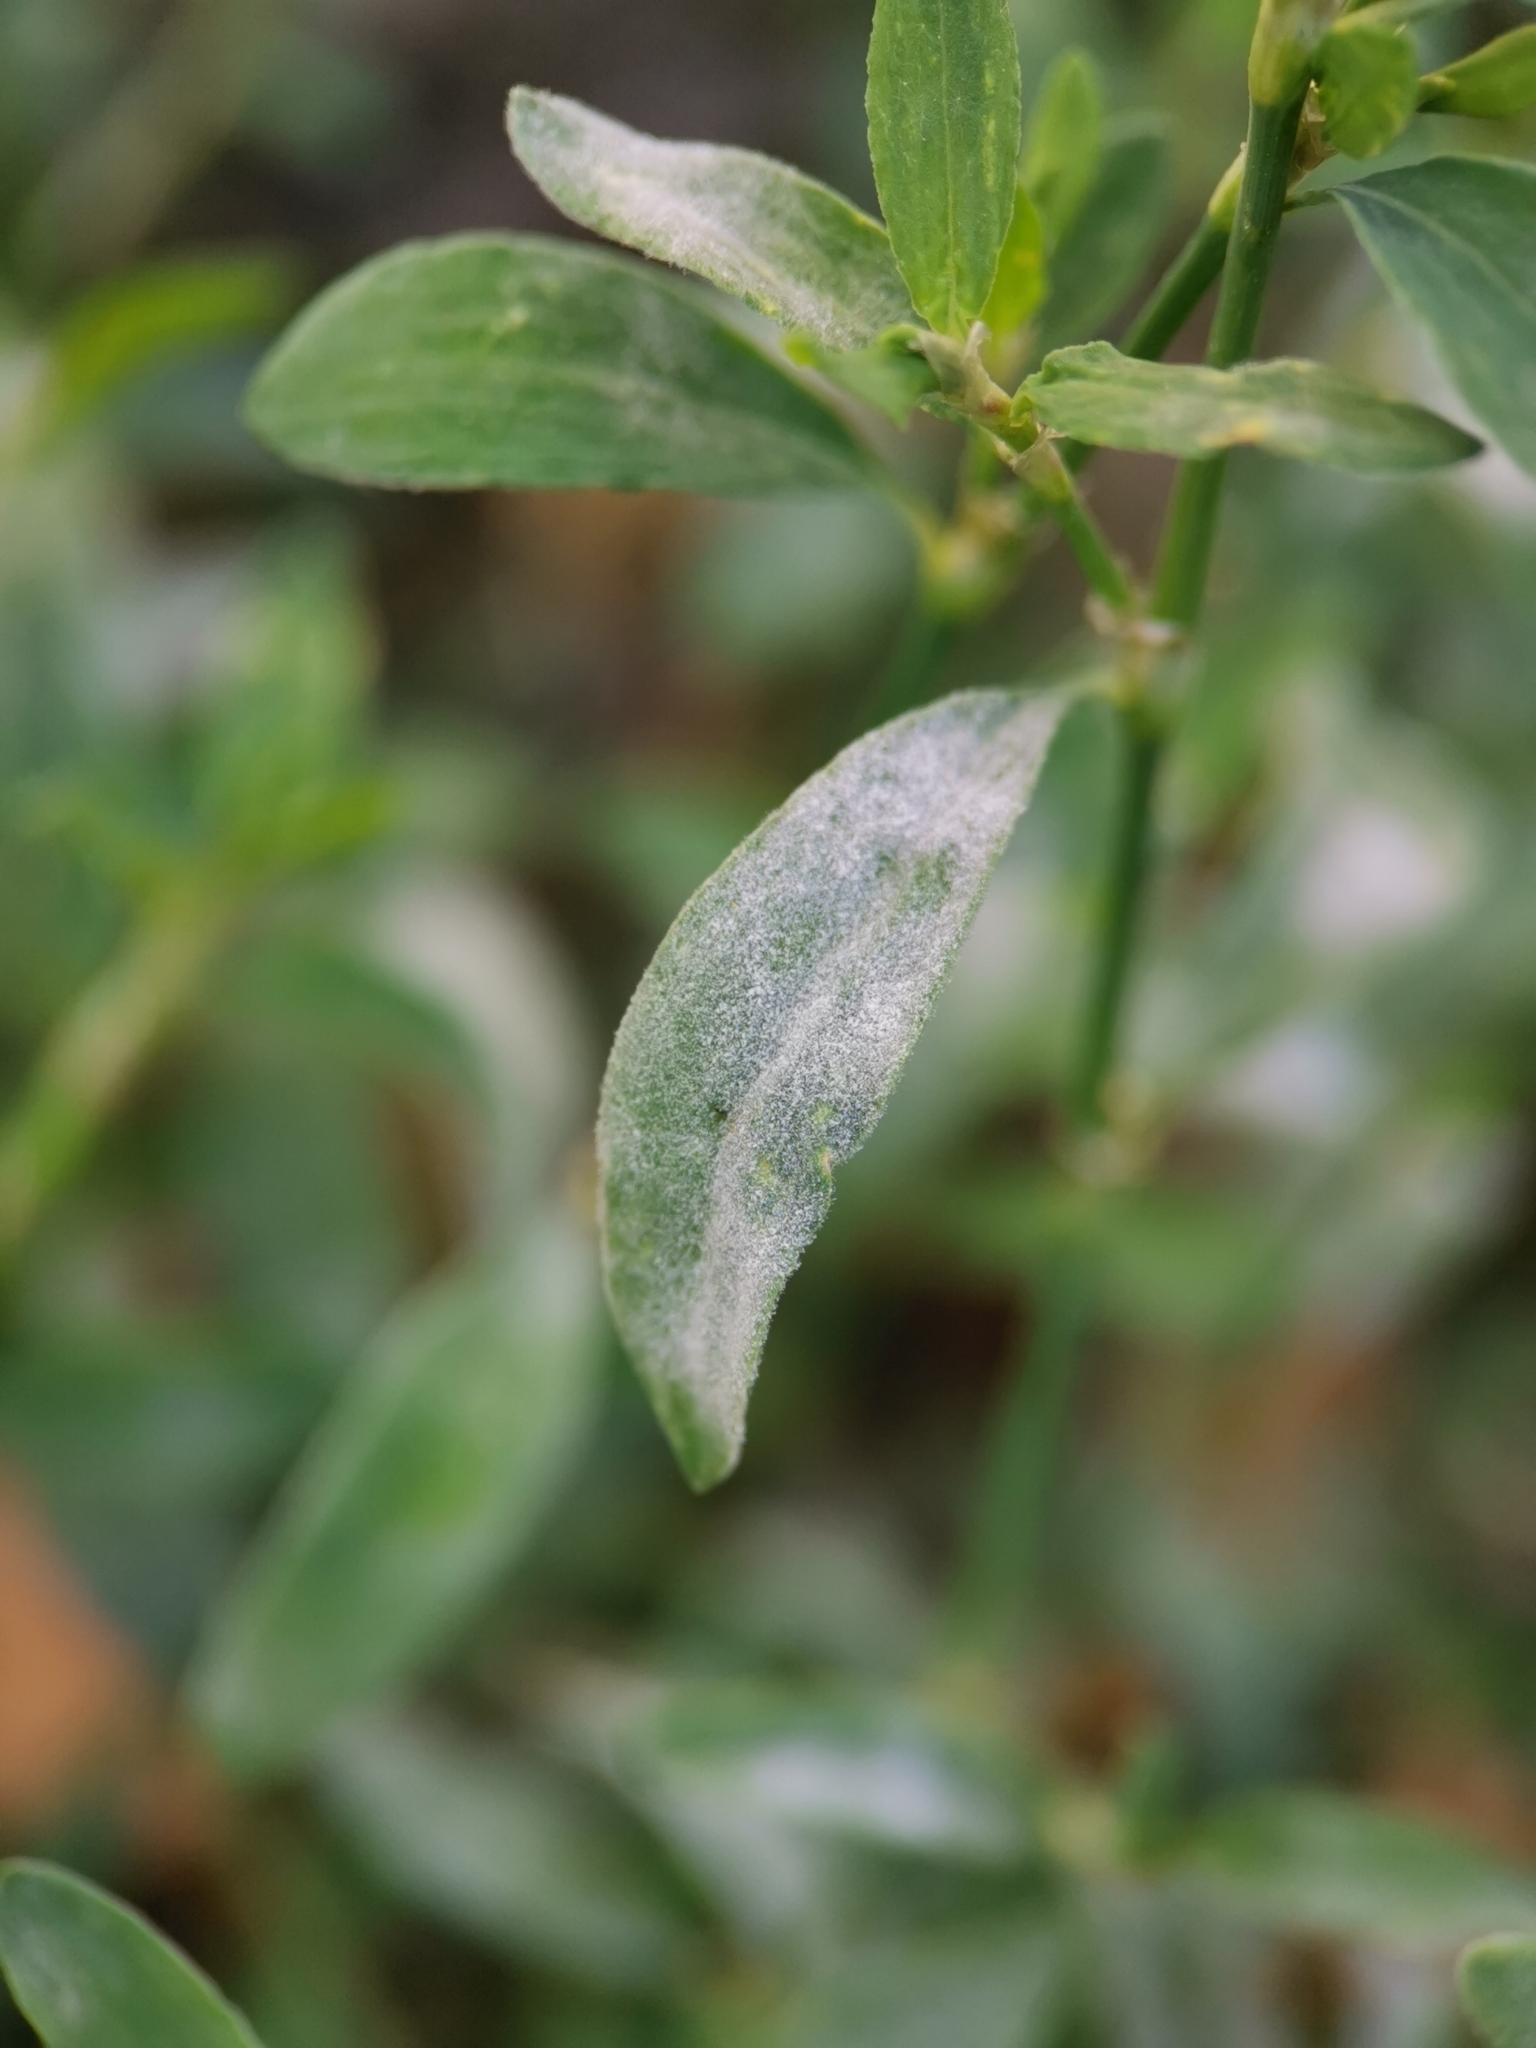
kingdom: Fungi
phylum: Ascomycota
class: Leotiomycetes
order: Helotiales
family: Erysiphaceae
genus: Erysiphe
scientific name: Erysiphe polygoni
